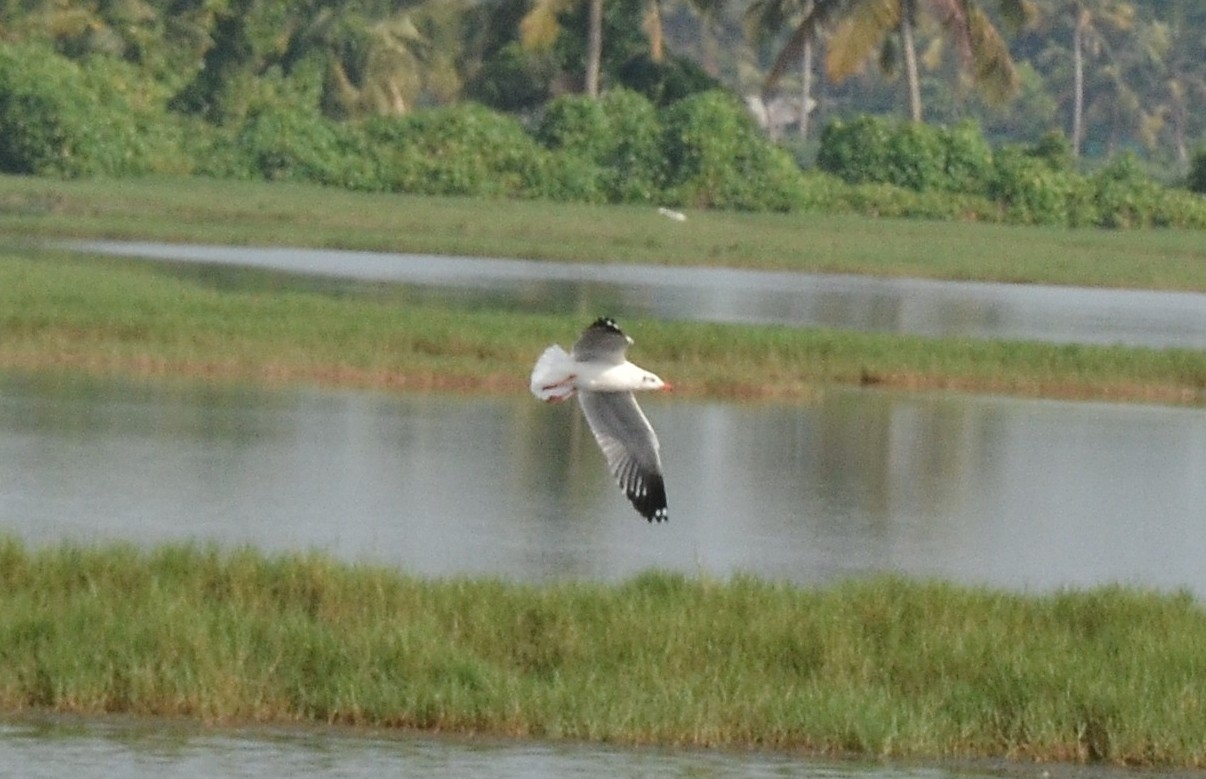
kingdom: Animalia
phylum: Chordata
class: Aves
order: Charadriiformes
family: Laridae
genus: Chroicocephalus
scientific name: Chroicocephalus brunnicephalus
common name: Brown-headed gull
